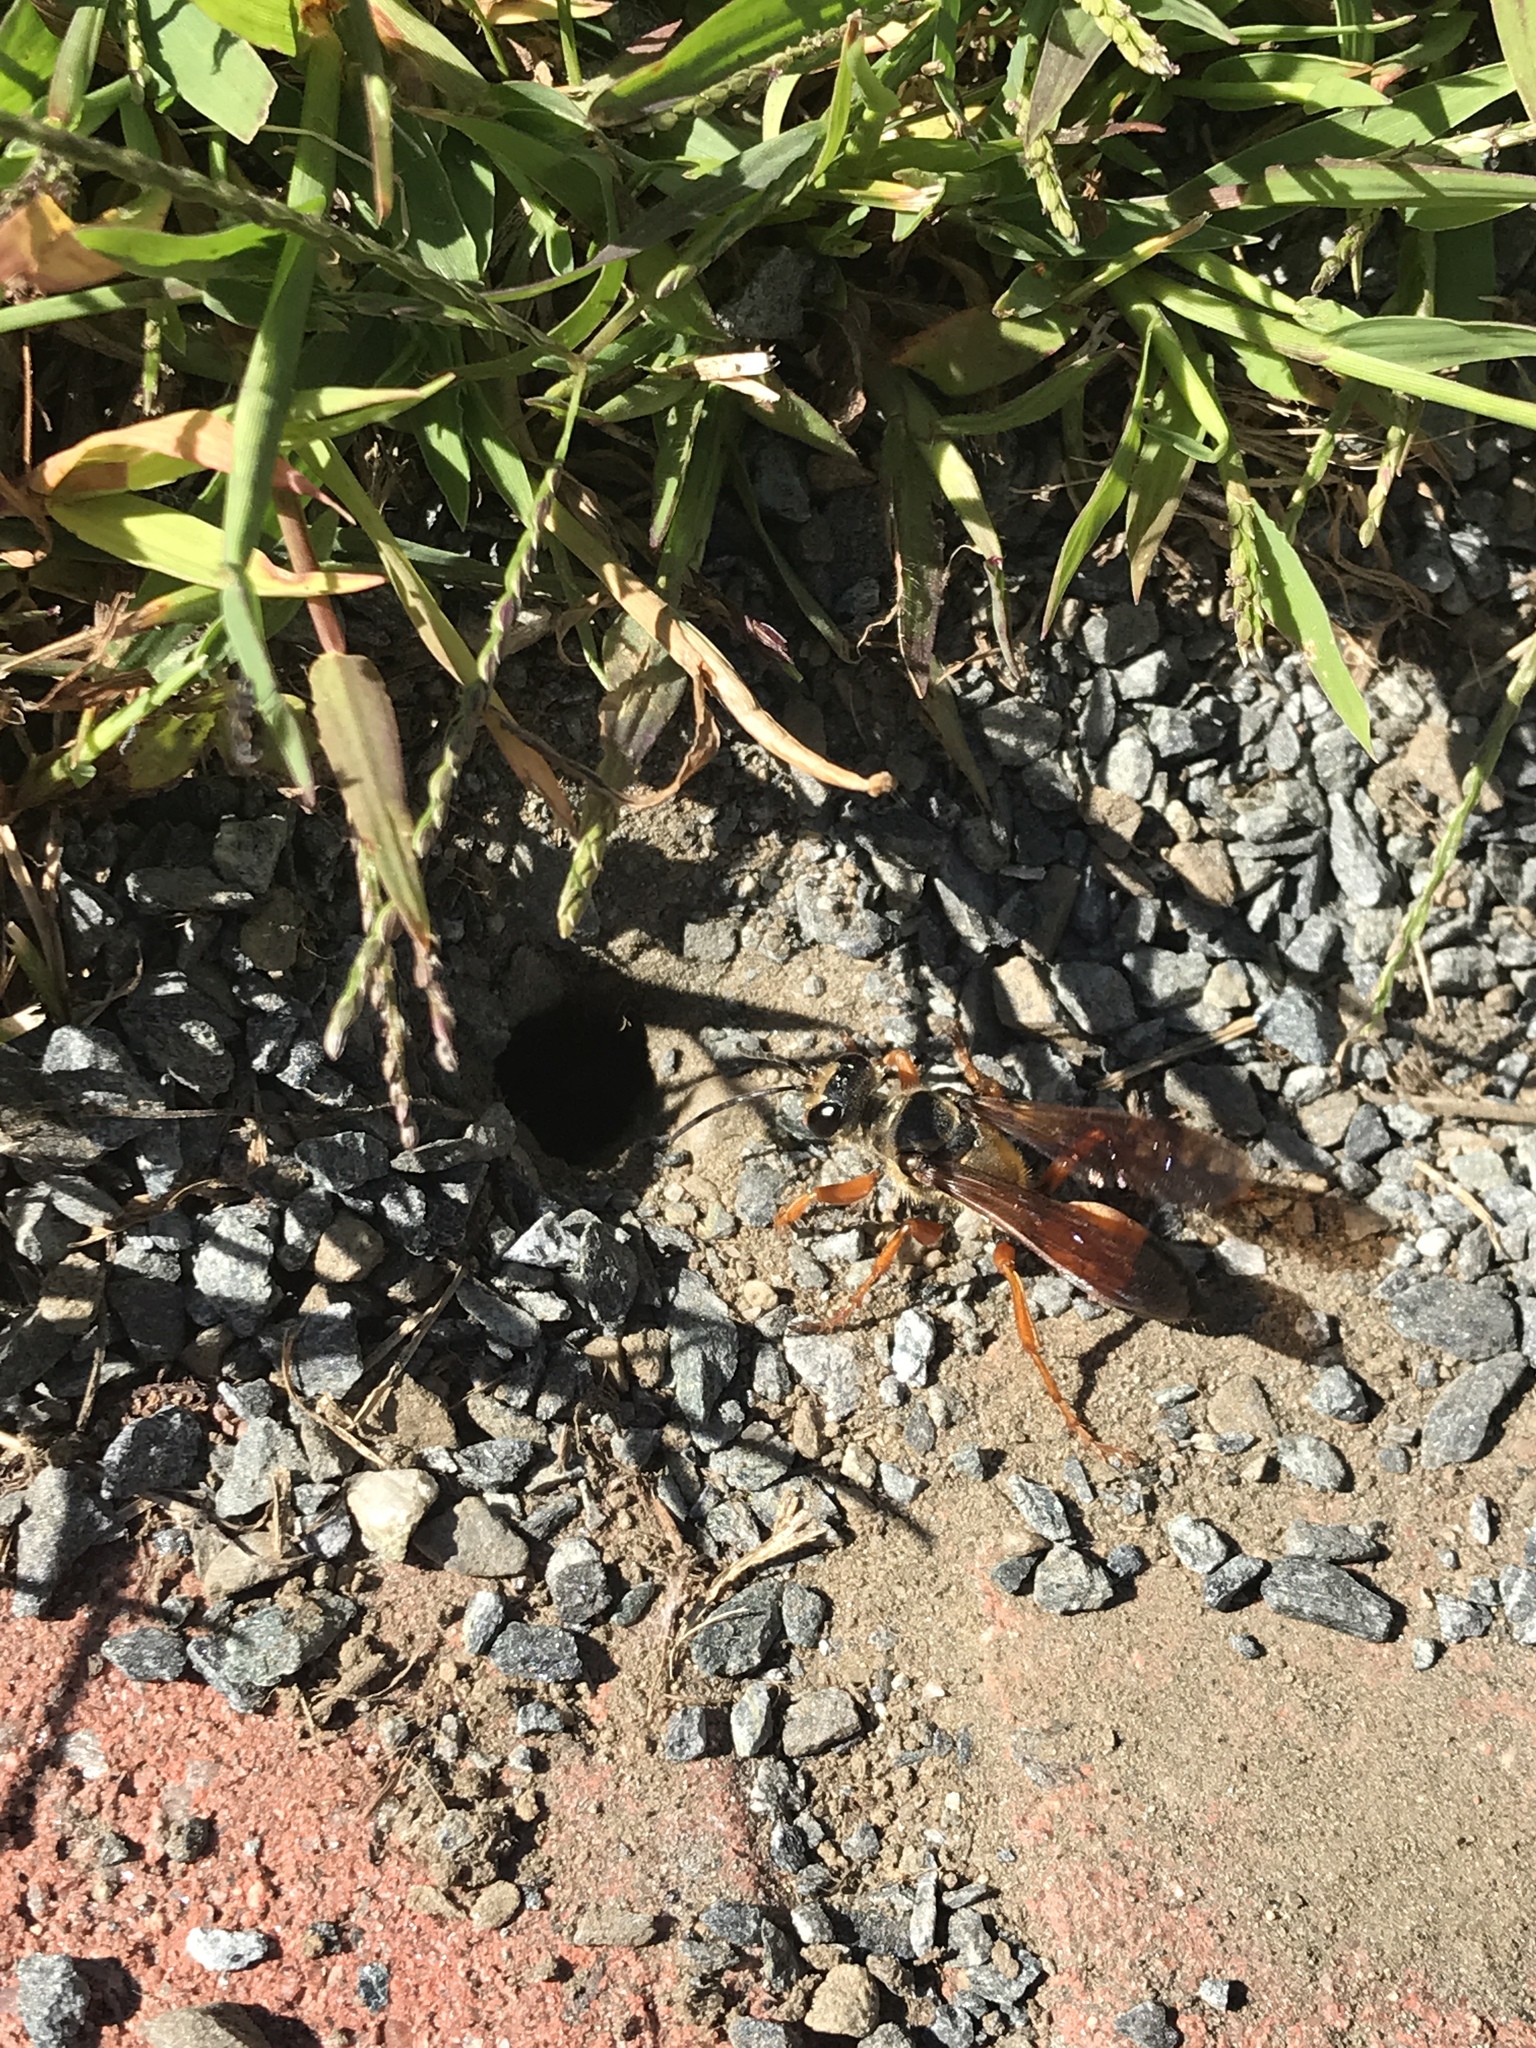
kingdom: Animalia
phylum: Arthropoda
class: Insecta
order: Hymenoptera
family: Sphecidae
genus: Sphex
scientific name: Sphex ichneumoneus
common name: Great golden digger wasp
